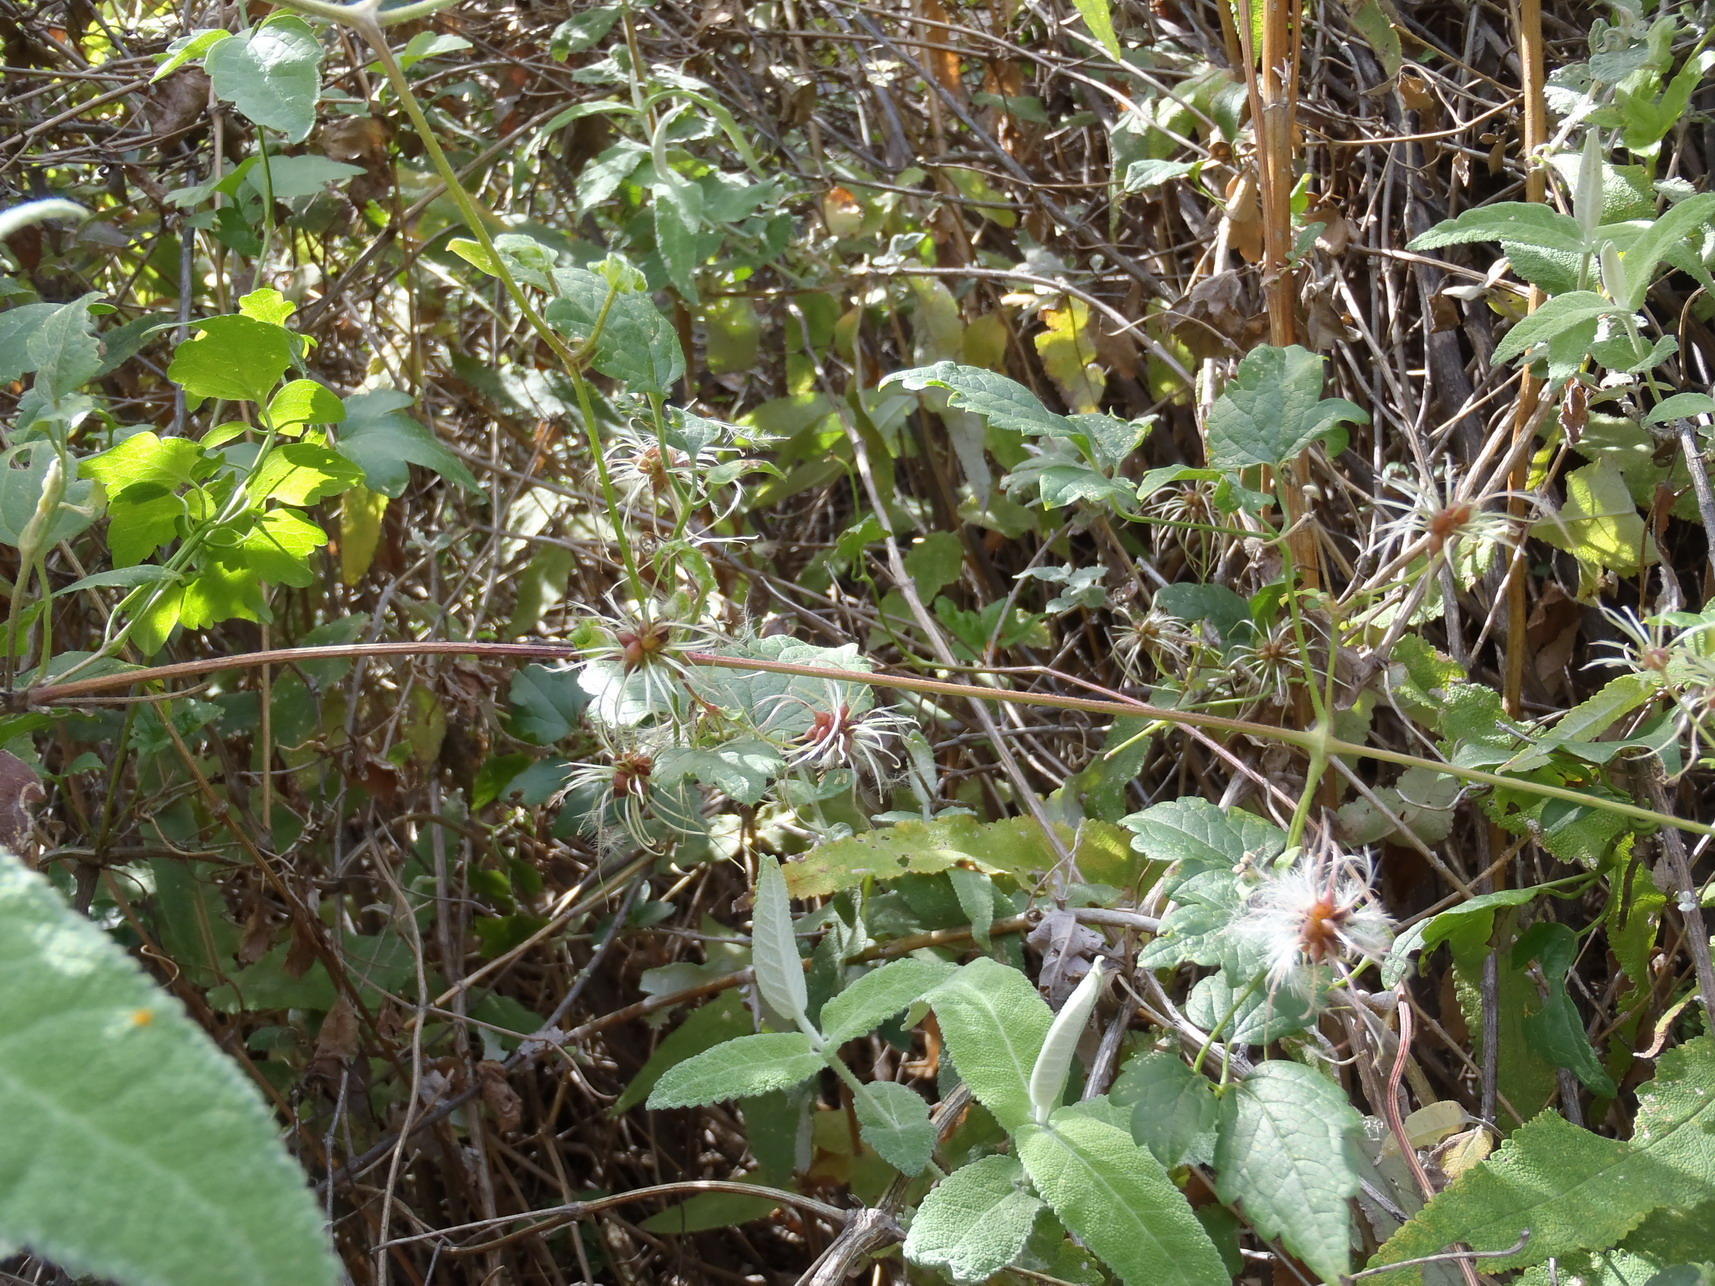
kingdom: Plantae
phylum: Tracheophyta
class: Magnoliopsida
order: Ranunculales
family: Ranunculaceae
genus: Clematis
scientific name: Clematis brachiata
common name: Traveler's-joy
